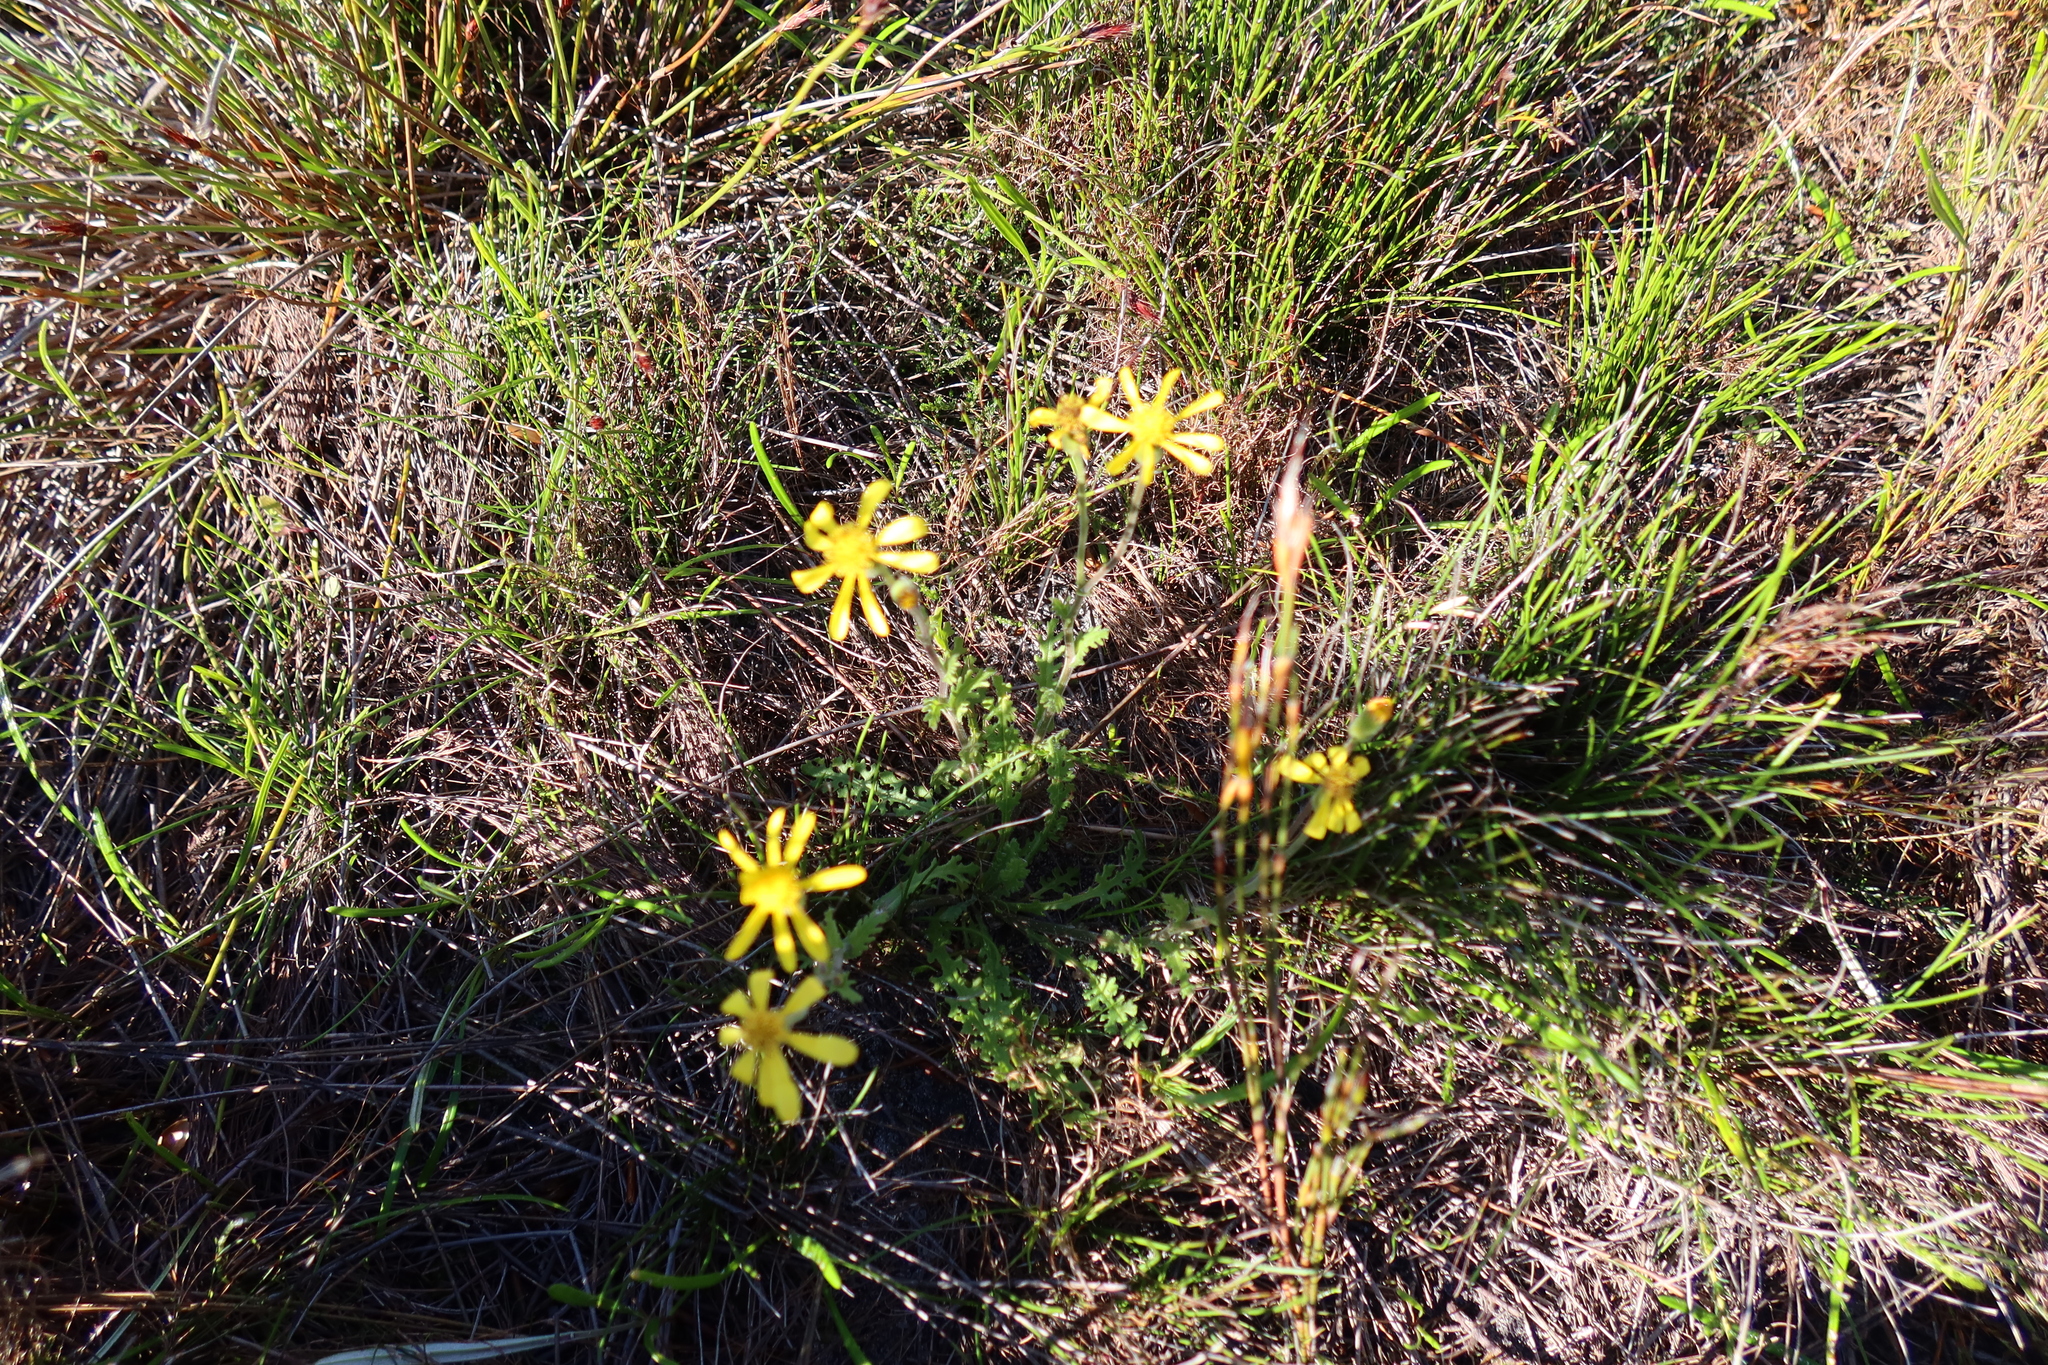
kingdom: Plantae
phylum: Tracheophyta
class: Magnoliopsida
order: Asterales
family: Asteraceae
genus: Senecio
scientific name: Senecio hastatus
